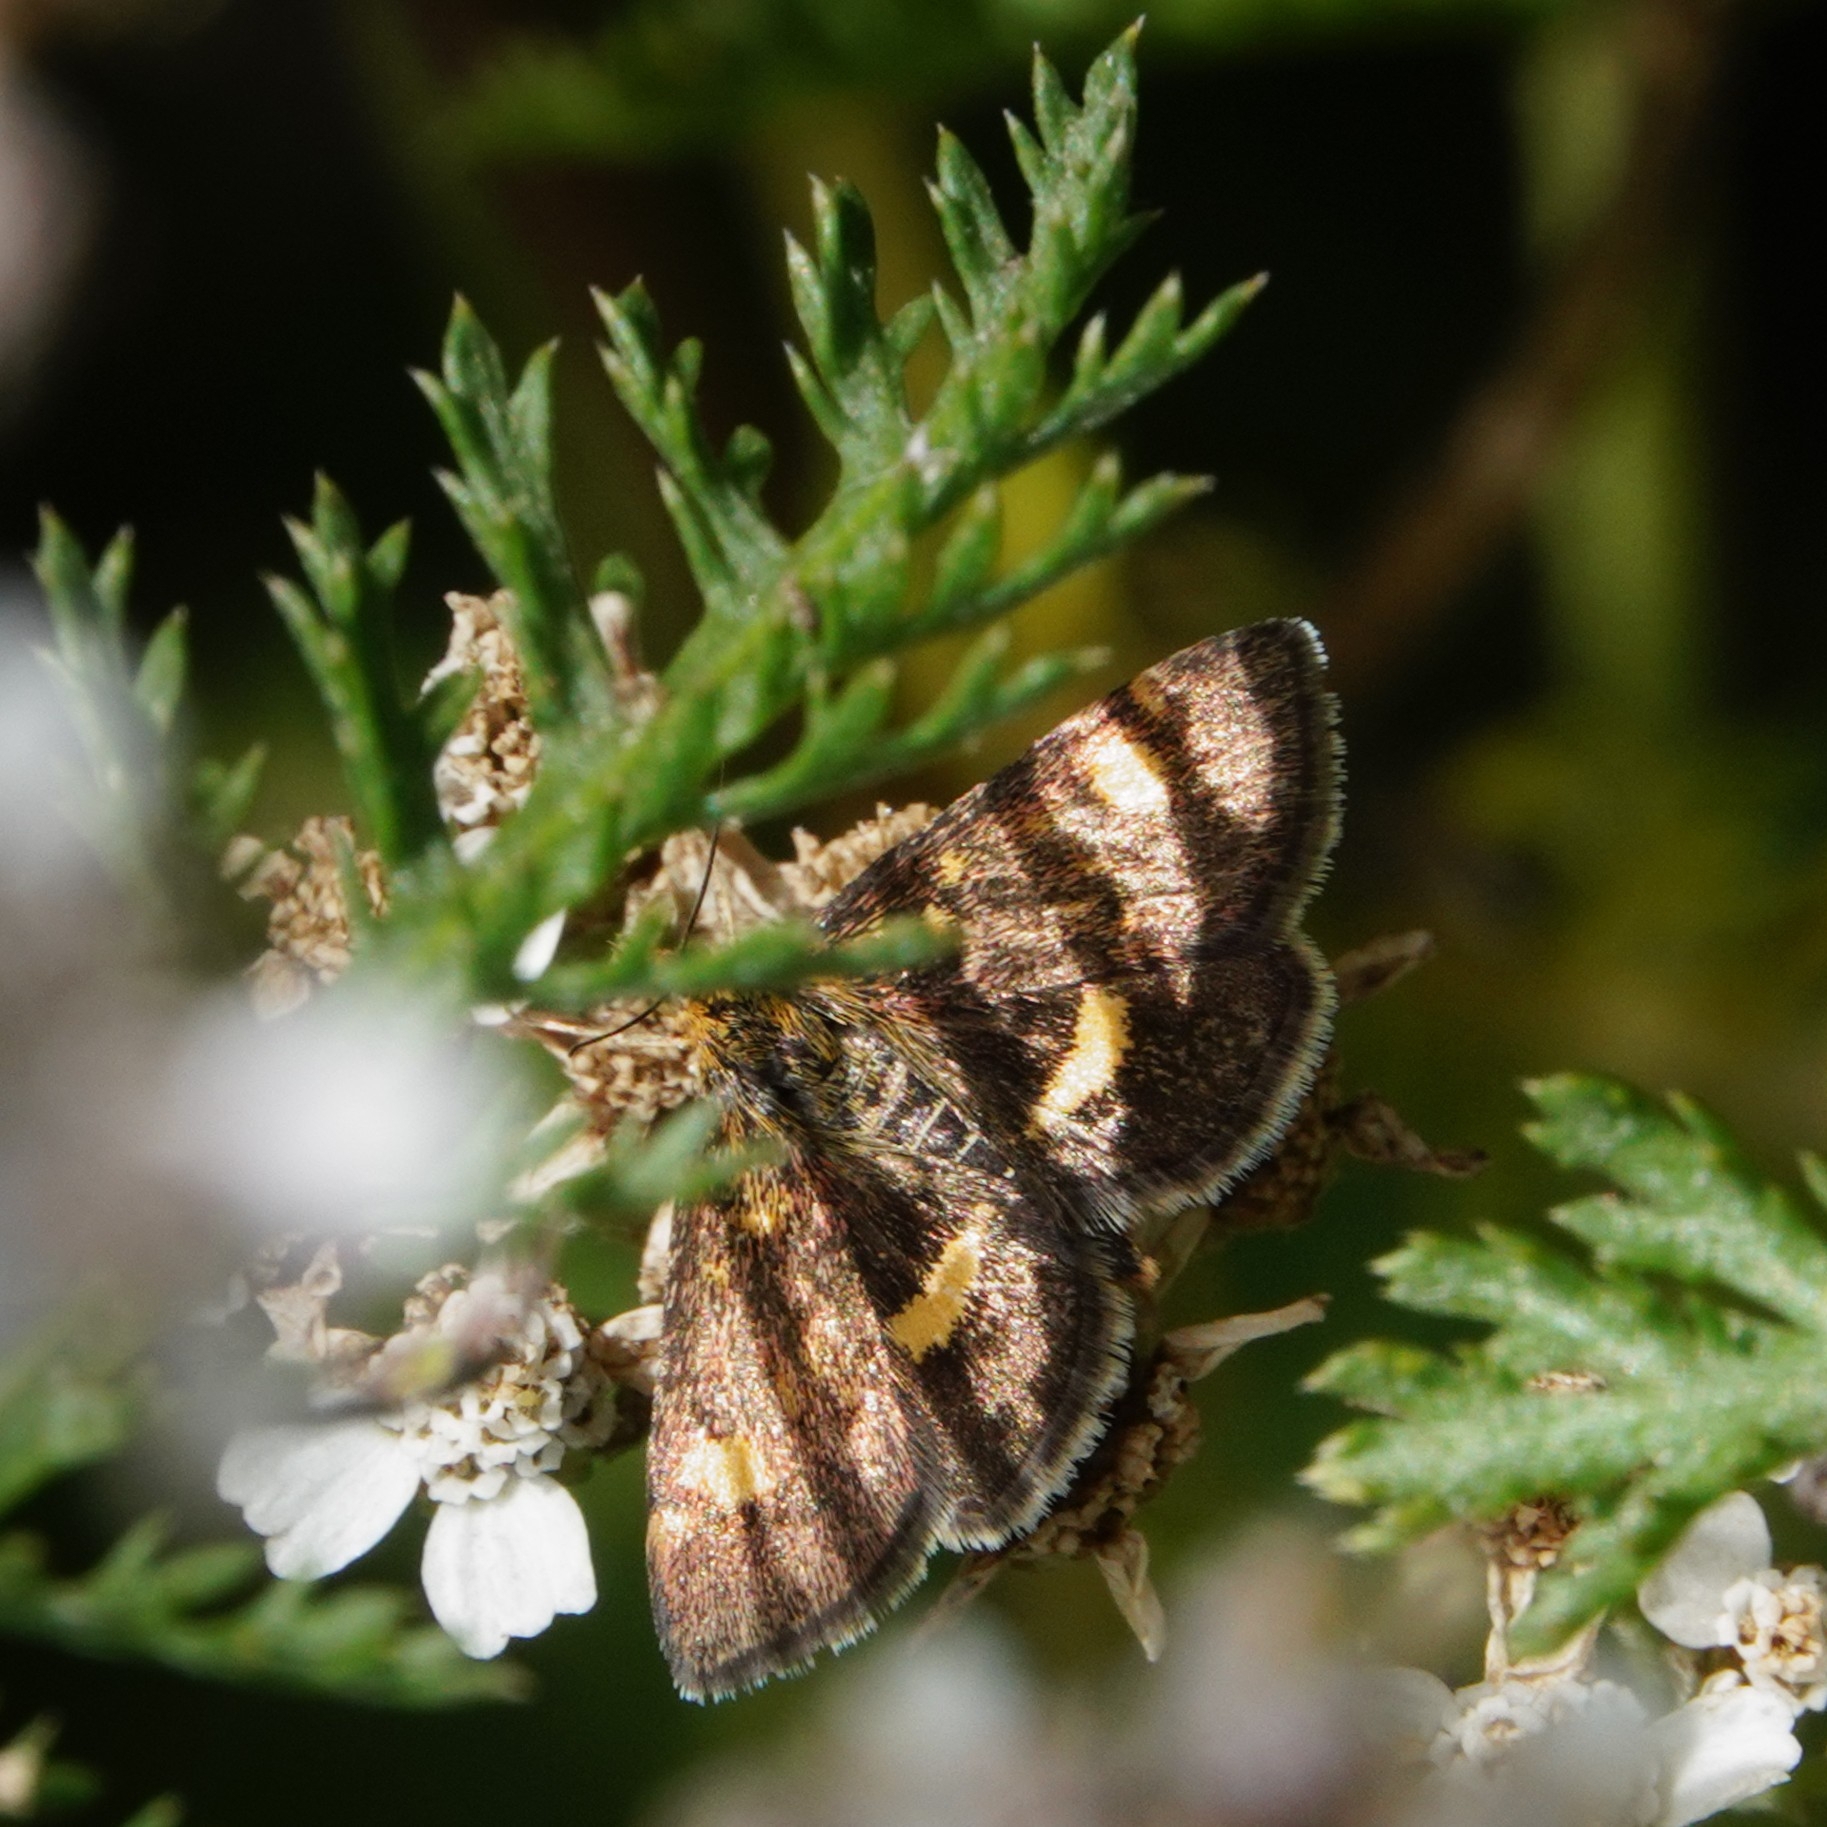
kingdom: Animalia
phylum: Arthropoda
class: Insecta
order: Lepidoptera
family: Crambidae
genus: Pyrausta
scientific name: Pyrausta aurata
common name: Small purple & gold
